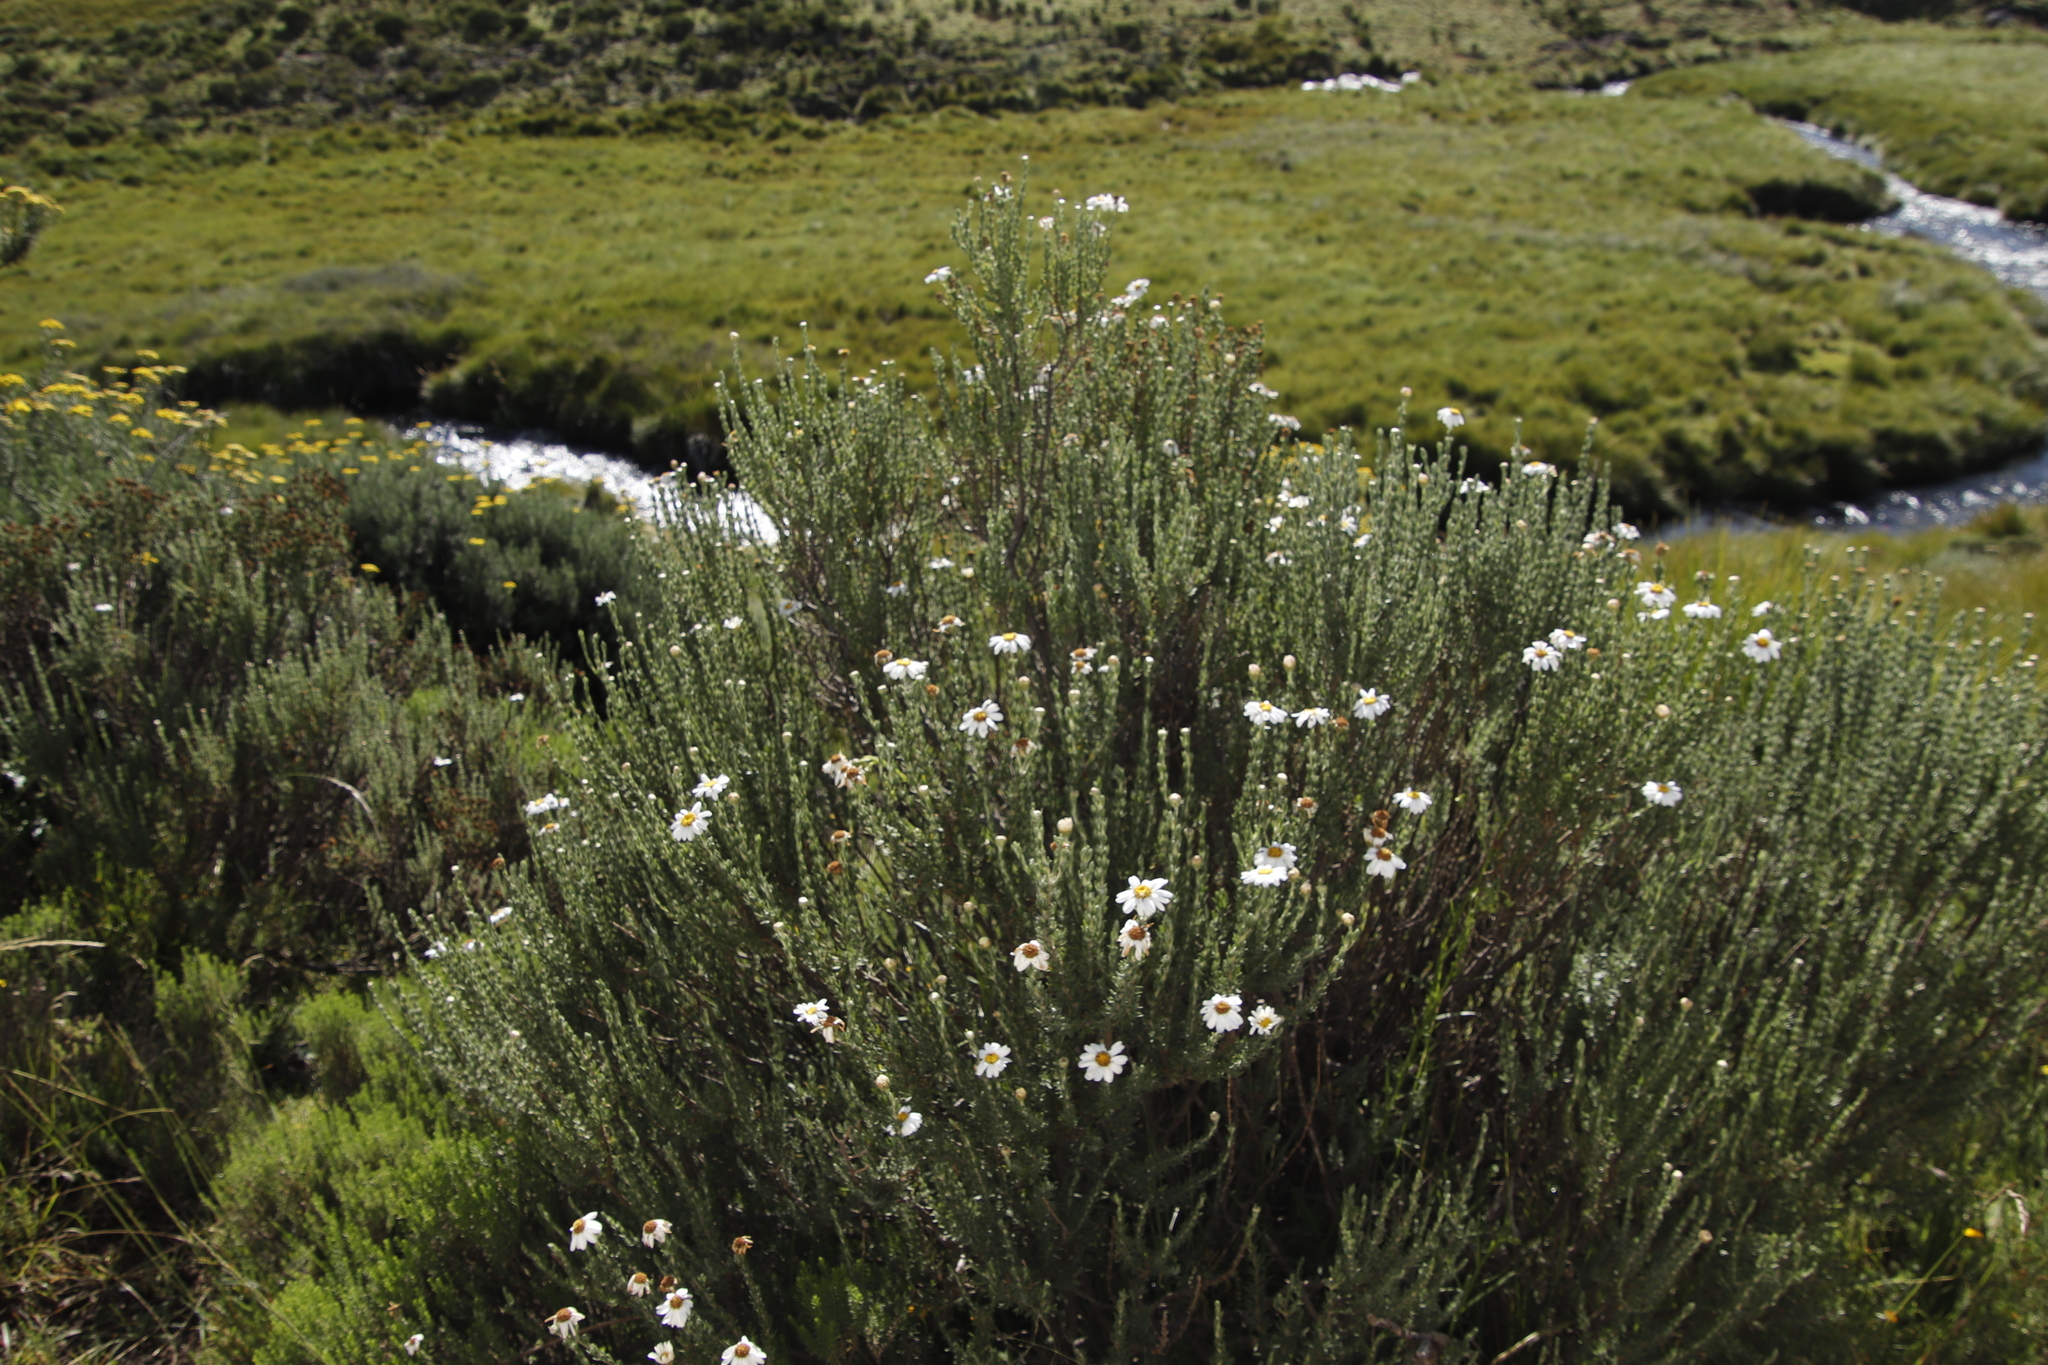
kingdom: Plantae
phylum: Tracheophyta
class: Magnoliopsida
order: Asterales
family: Asteraceae
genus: Eumorphia
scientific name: Eumorphia sericea
